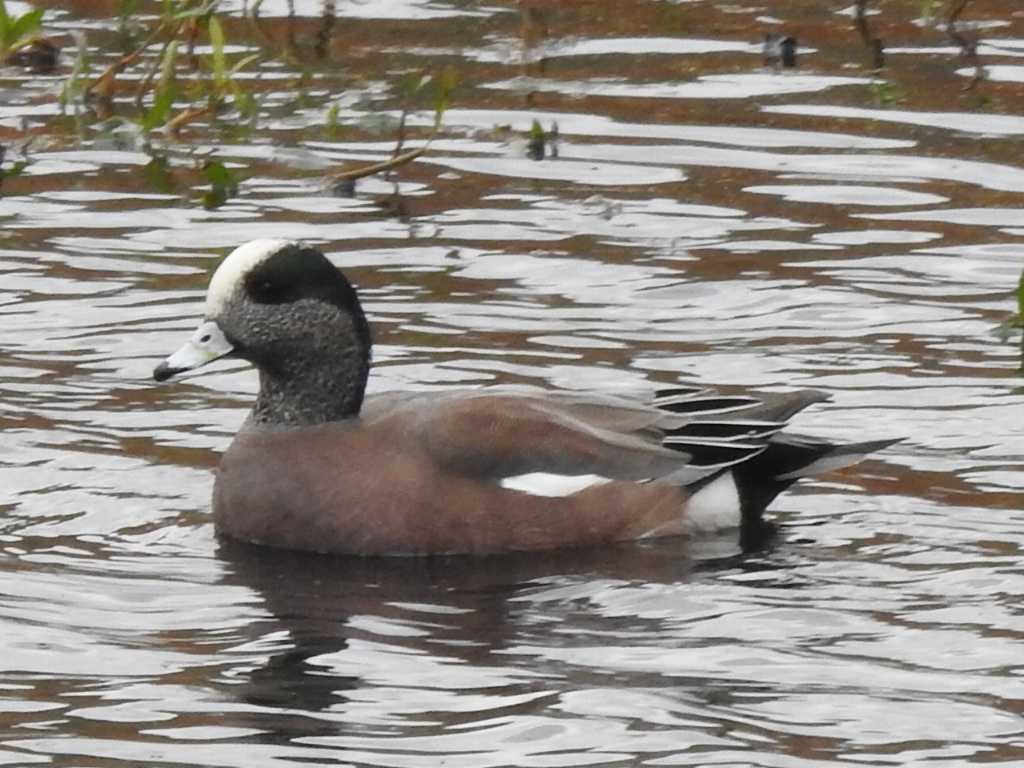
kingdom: Animalia
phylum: Chordata
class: Aves
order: Anseriformes
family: Anatidae
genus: Mareca
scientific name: Mareca americana
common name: American wigeon
